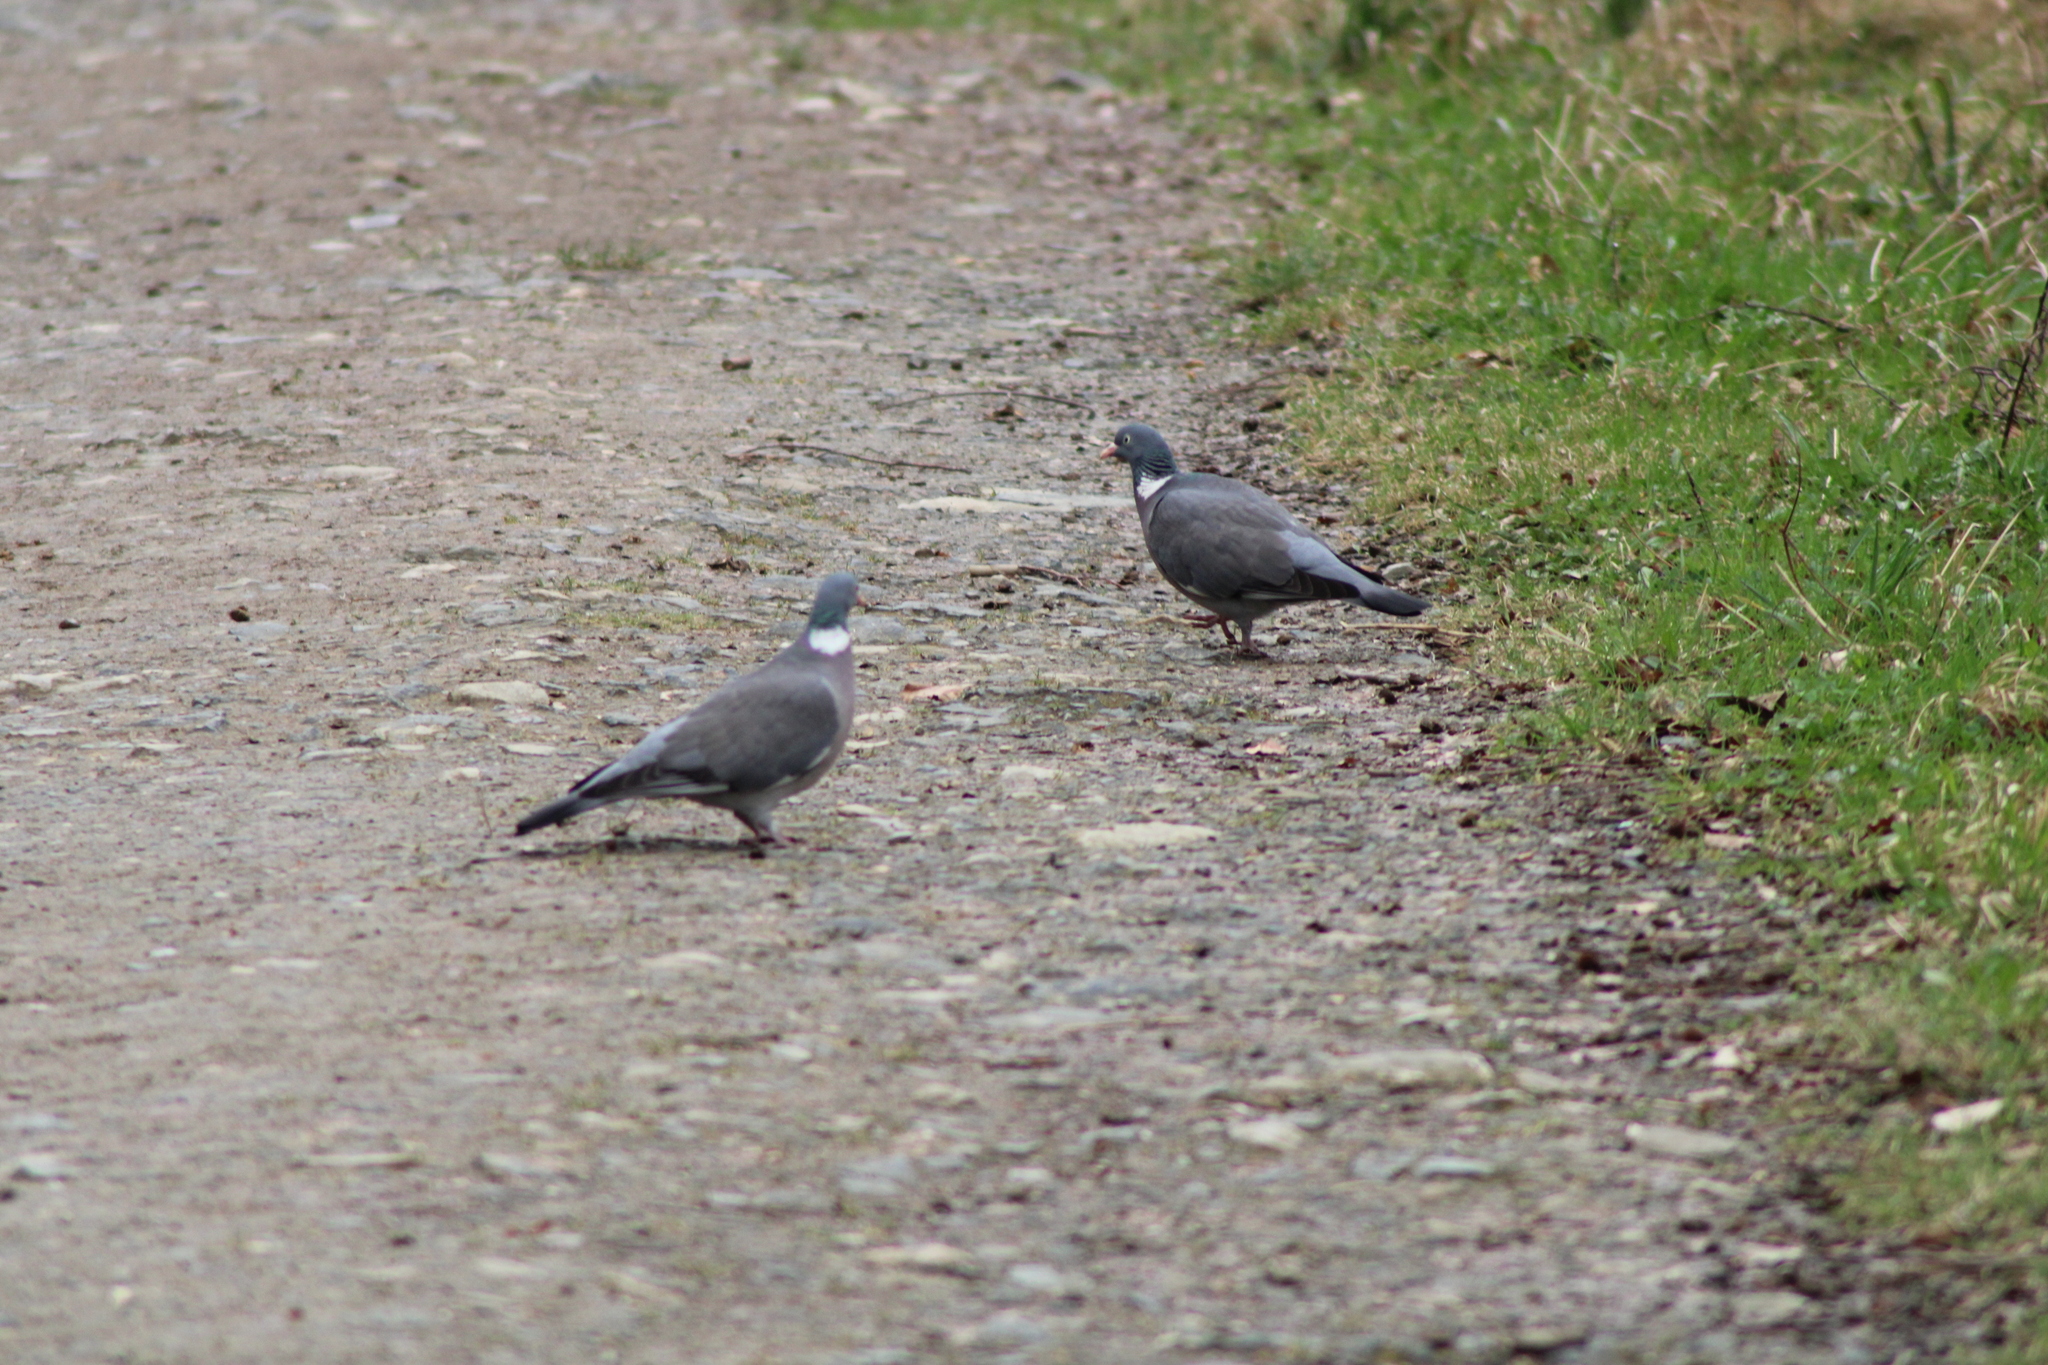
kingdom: Animalia
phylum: Chordata
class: Aves
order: Columbiformes
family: Columbidae
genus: Columba
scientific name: Columba palumbus
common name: Common wood pigeon
